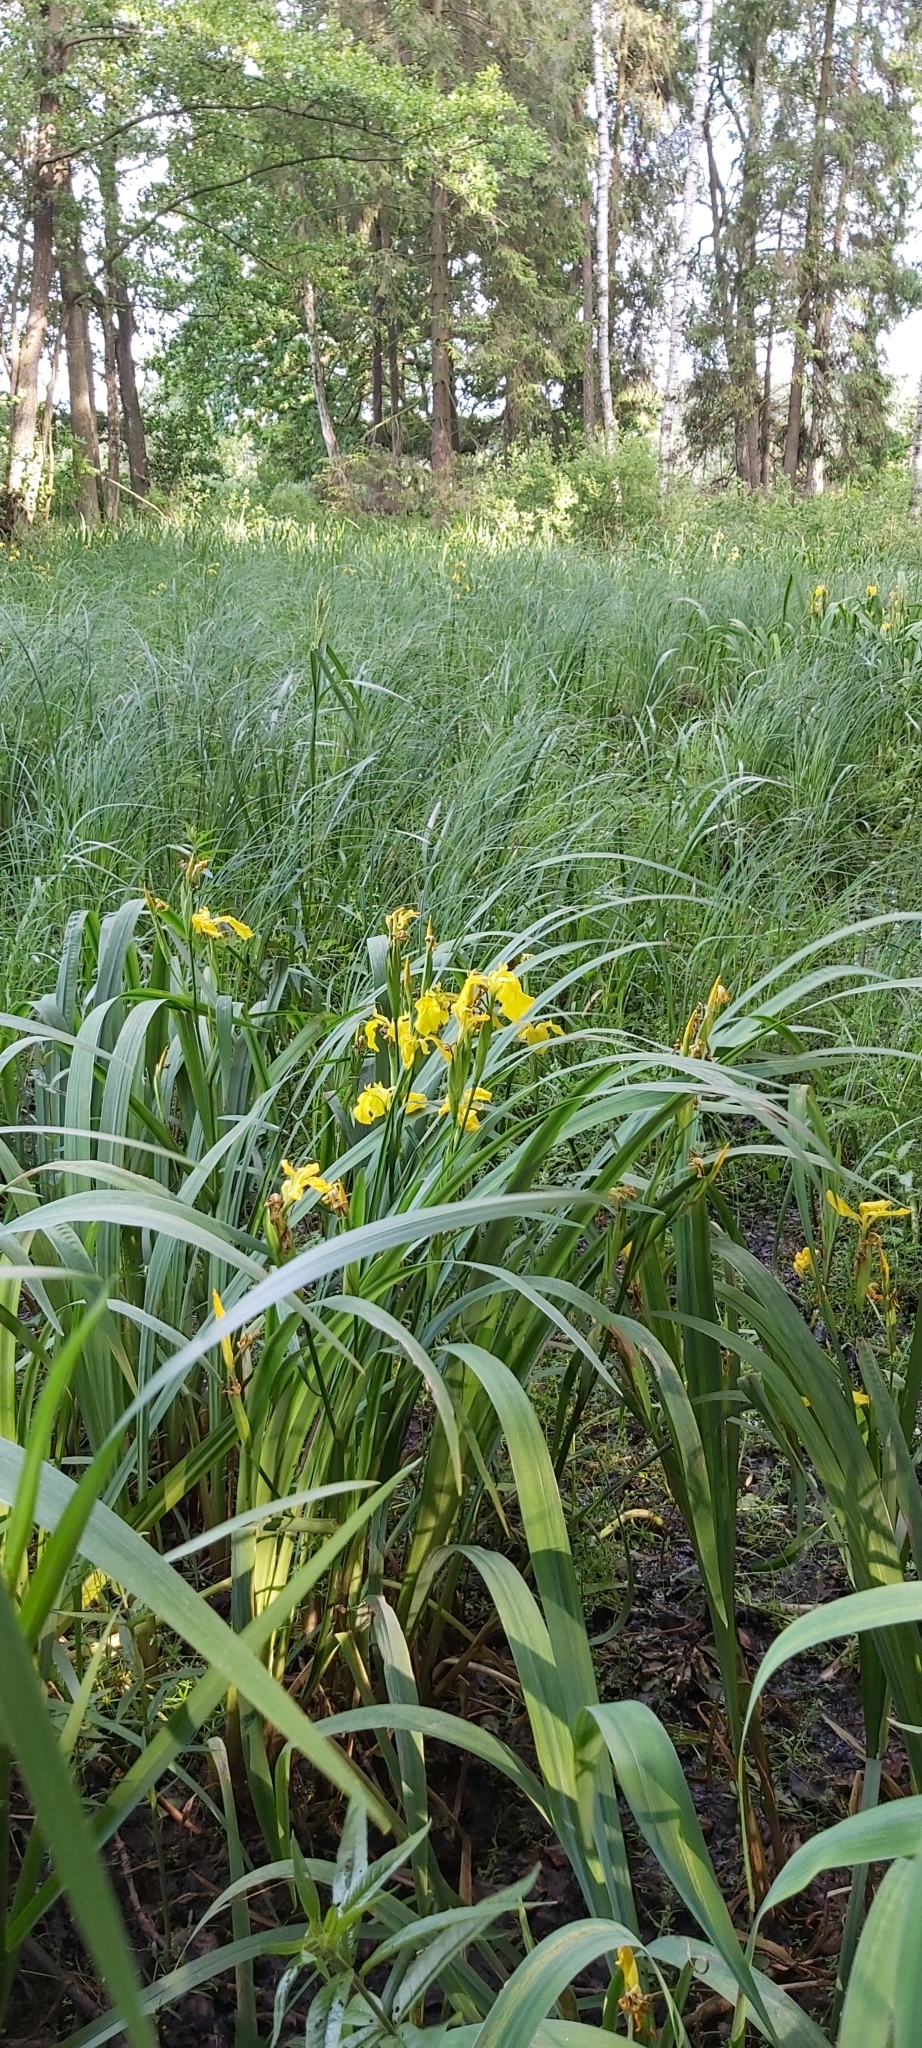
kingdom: Plantae
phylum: Tracheophyta
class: Liliopsida
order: Asparagales
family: Iridaceae
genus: Iris
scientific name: Iris pseudacorus
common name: Yellow flag
